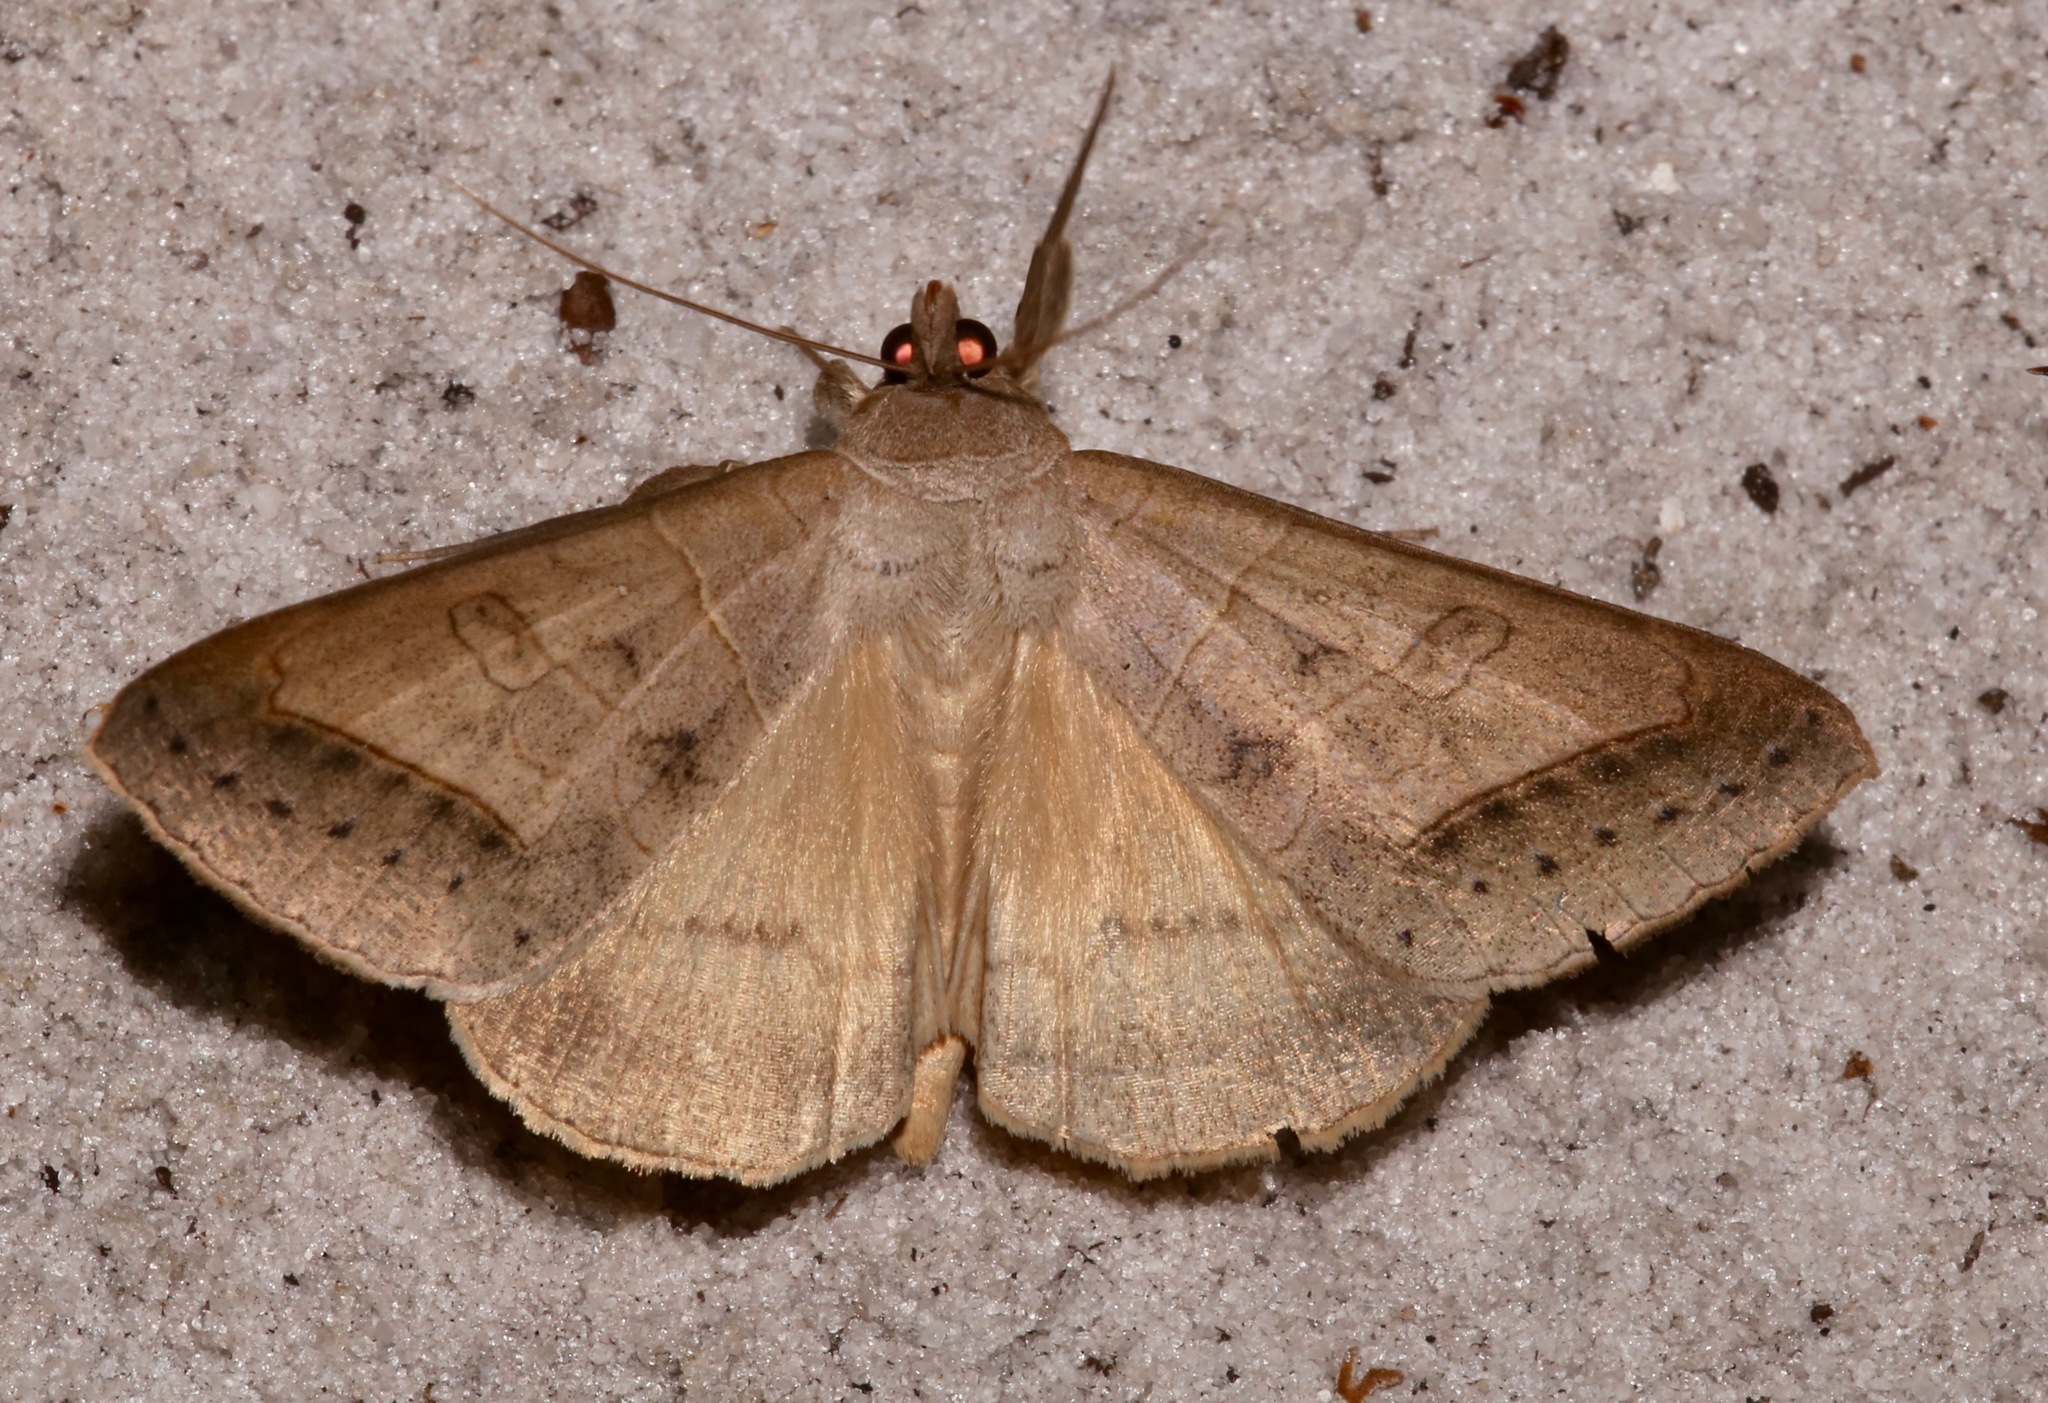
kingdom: Animalia
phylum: Arthropoda
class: Insecta
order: Lepidoptera
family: Erebidae
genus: Mocis
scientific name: Mocis marcida
